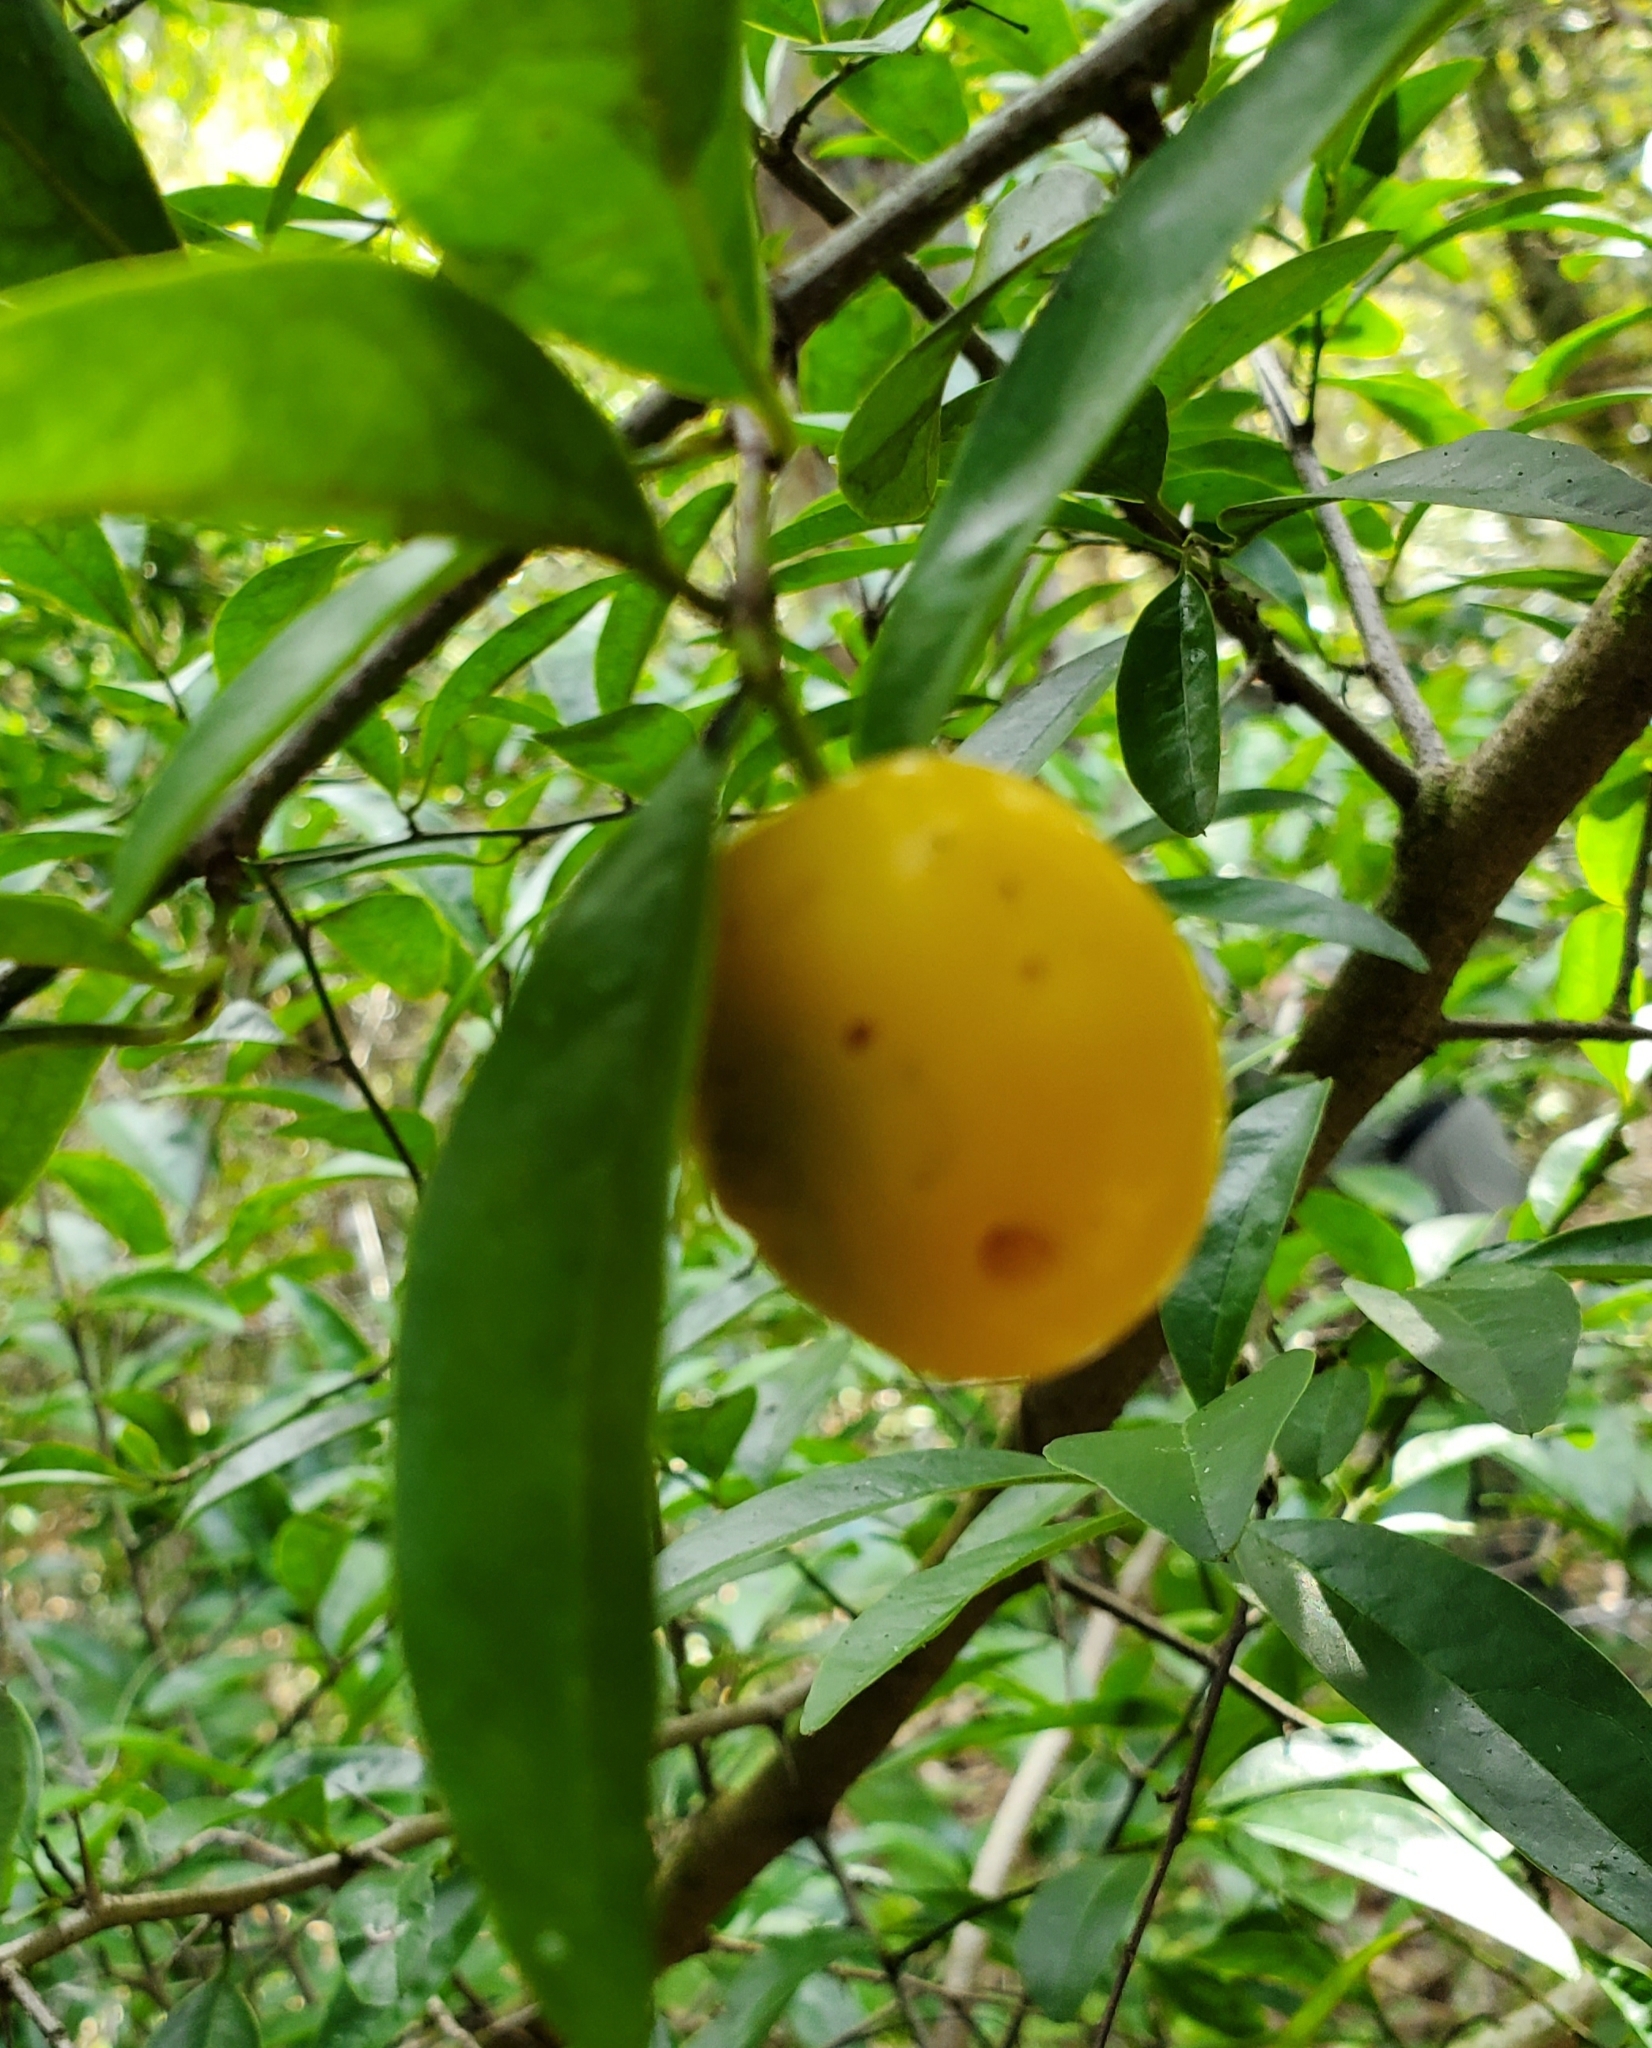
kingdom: Plantae
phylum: Tracheophyta
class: Magnoliopsida
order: Santalales
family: Ximeniaceae
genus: Ximenia
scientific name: Ximenia americana
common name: Tallowwood
